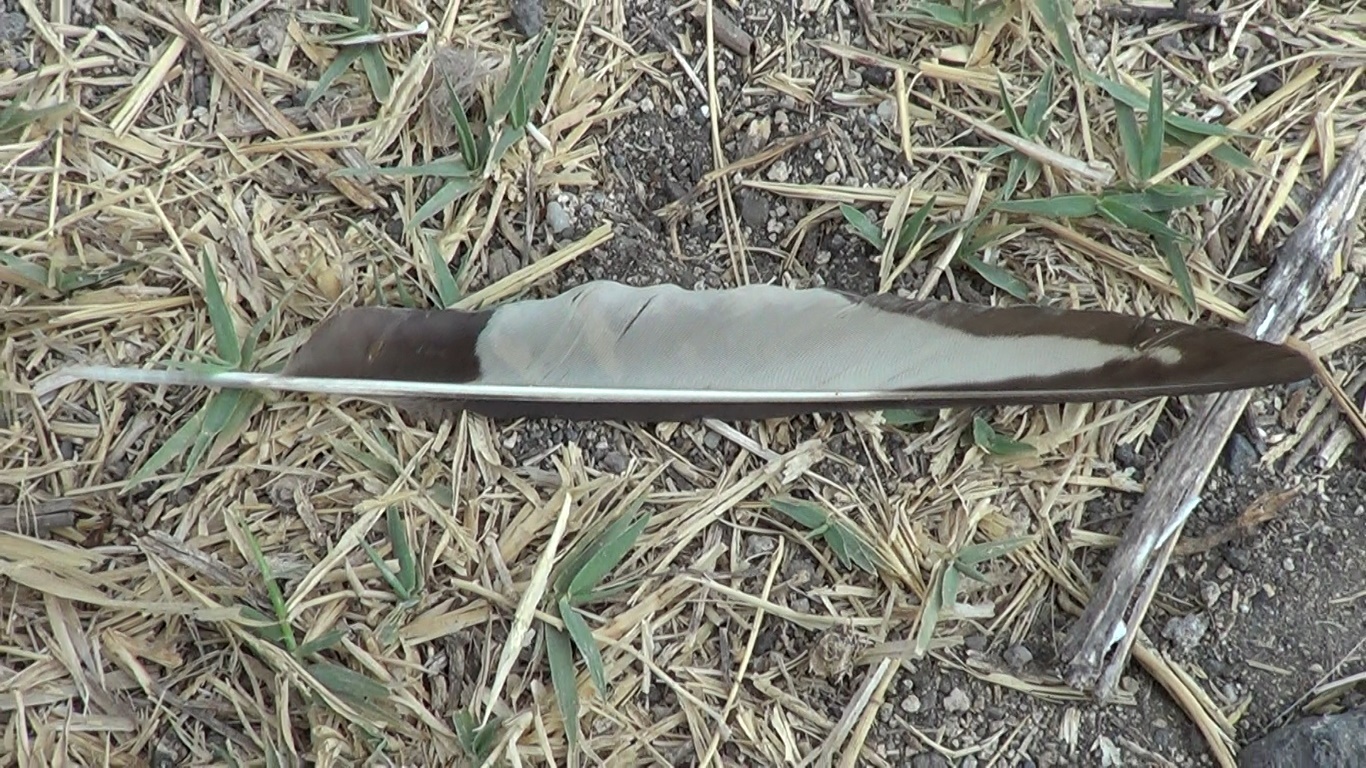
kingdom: Animalia
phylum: Chordata
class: Aves
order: Passeriformes
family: Corvidae
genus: Pica
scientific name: Pica pica
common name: Eurasian magpie
